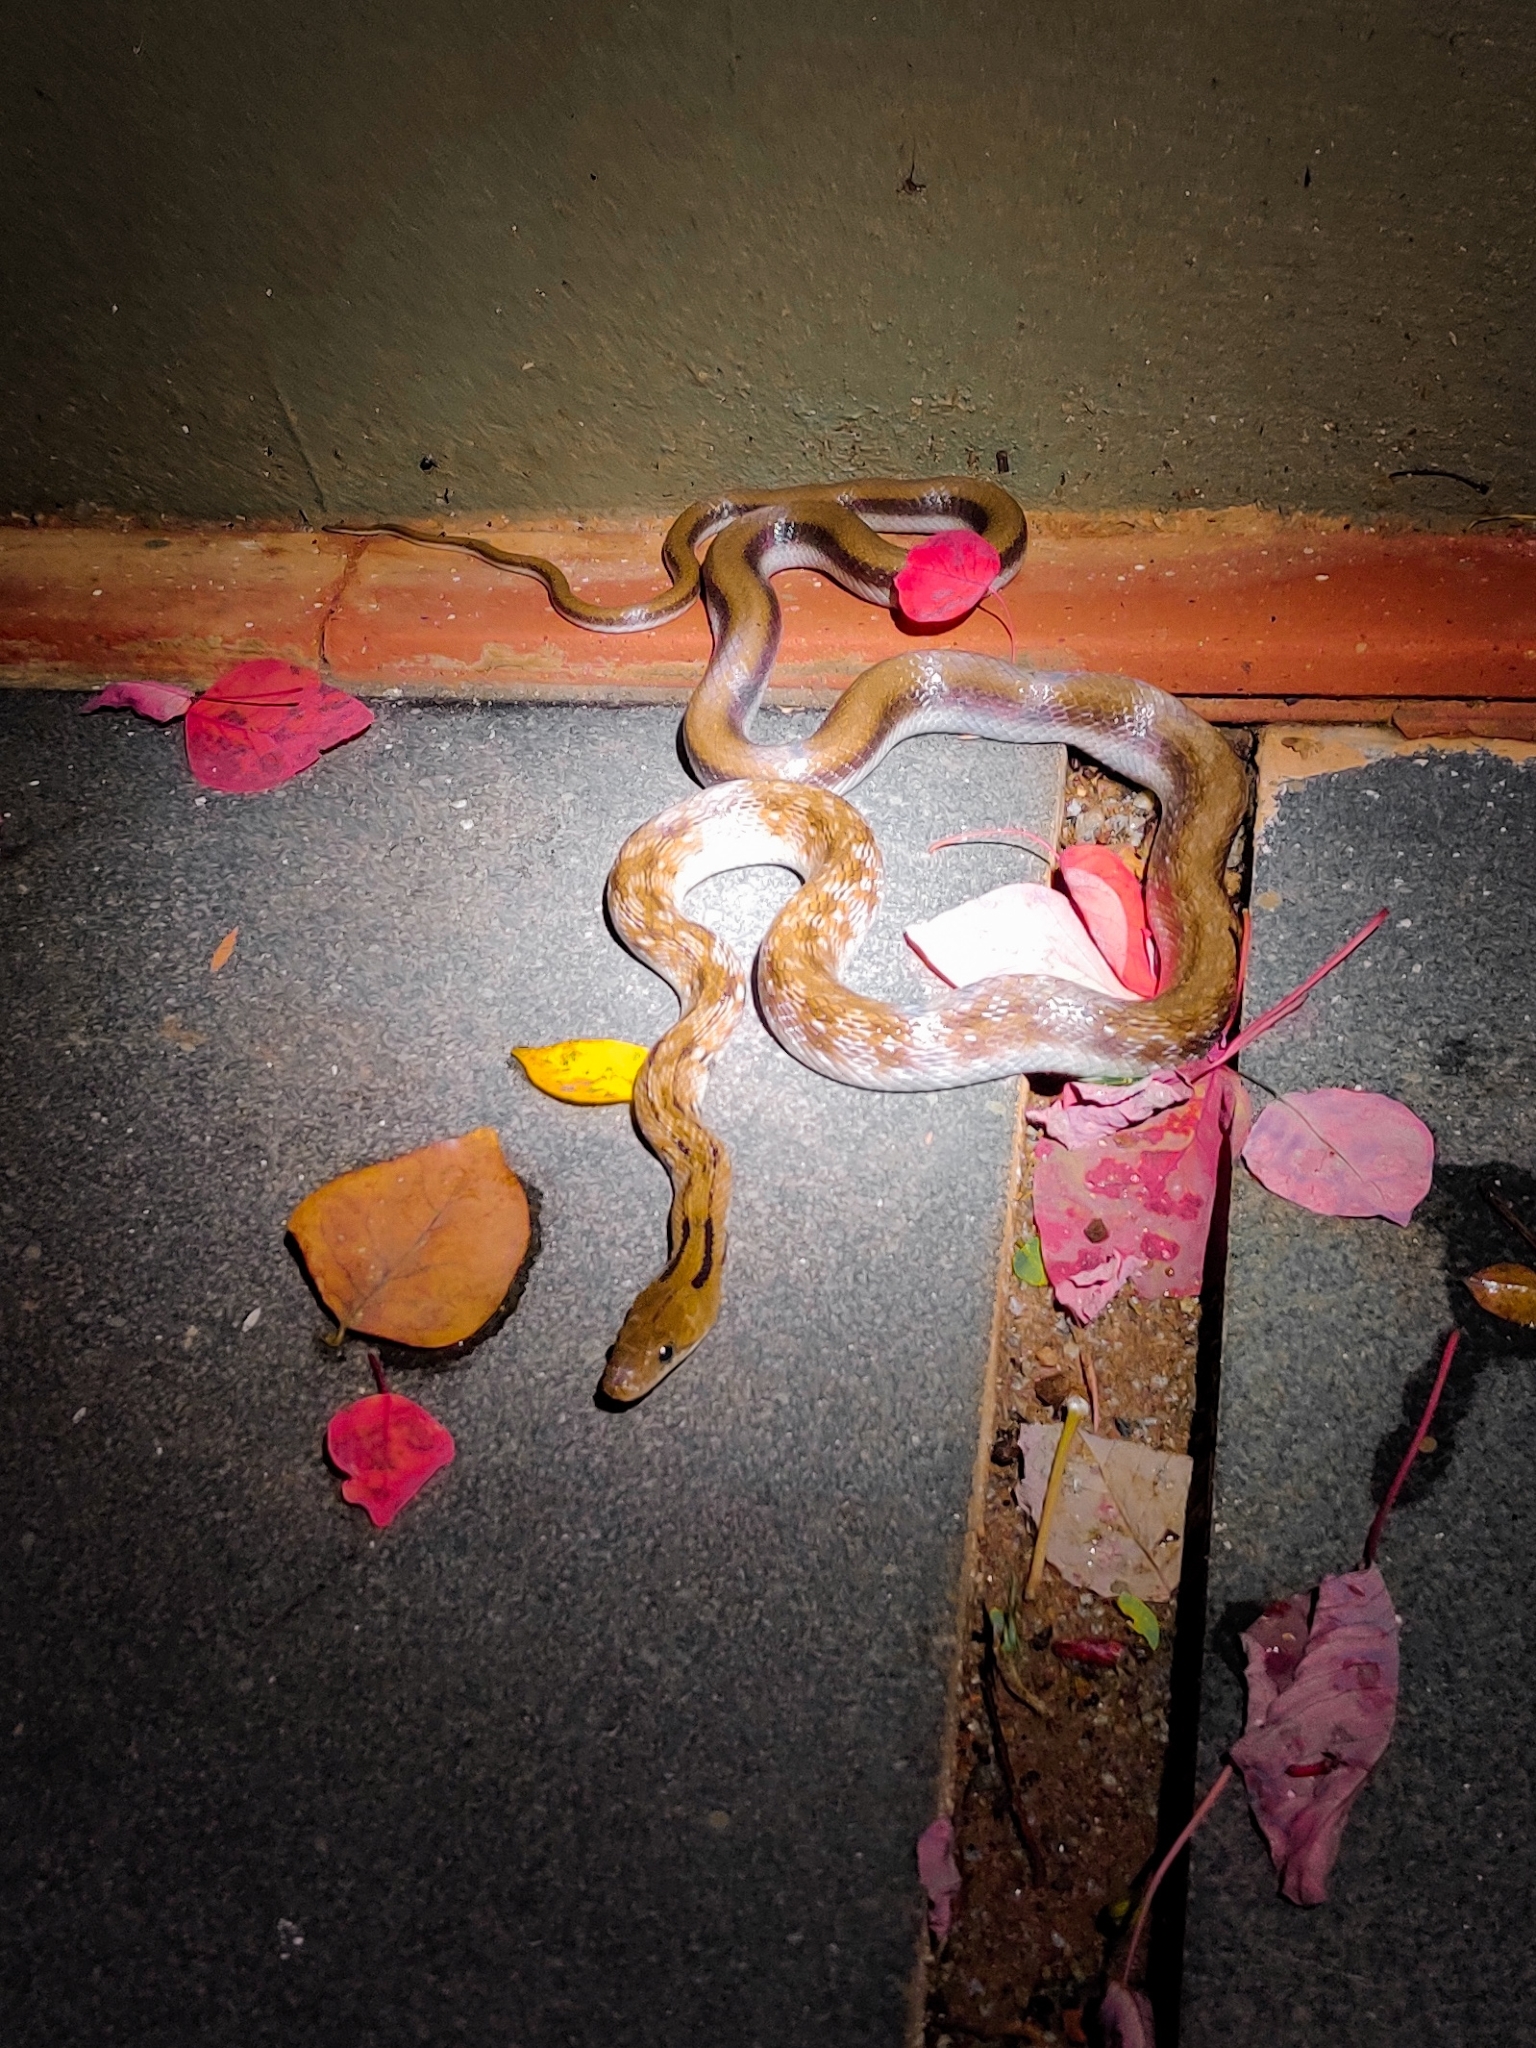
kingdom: Animalia
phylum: Chordata
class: Squamata
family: Colubridae
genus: Coelognathus
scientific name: Coelognathus helena
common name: Trinket snake
